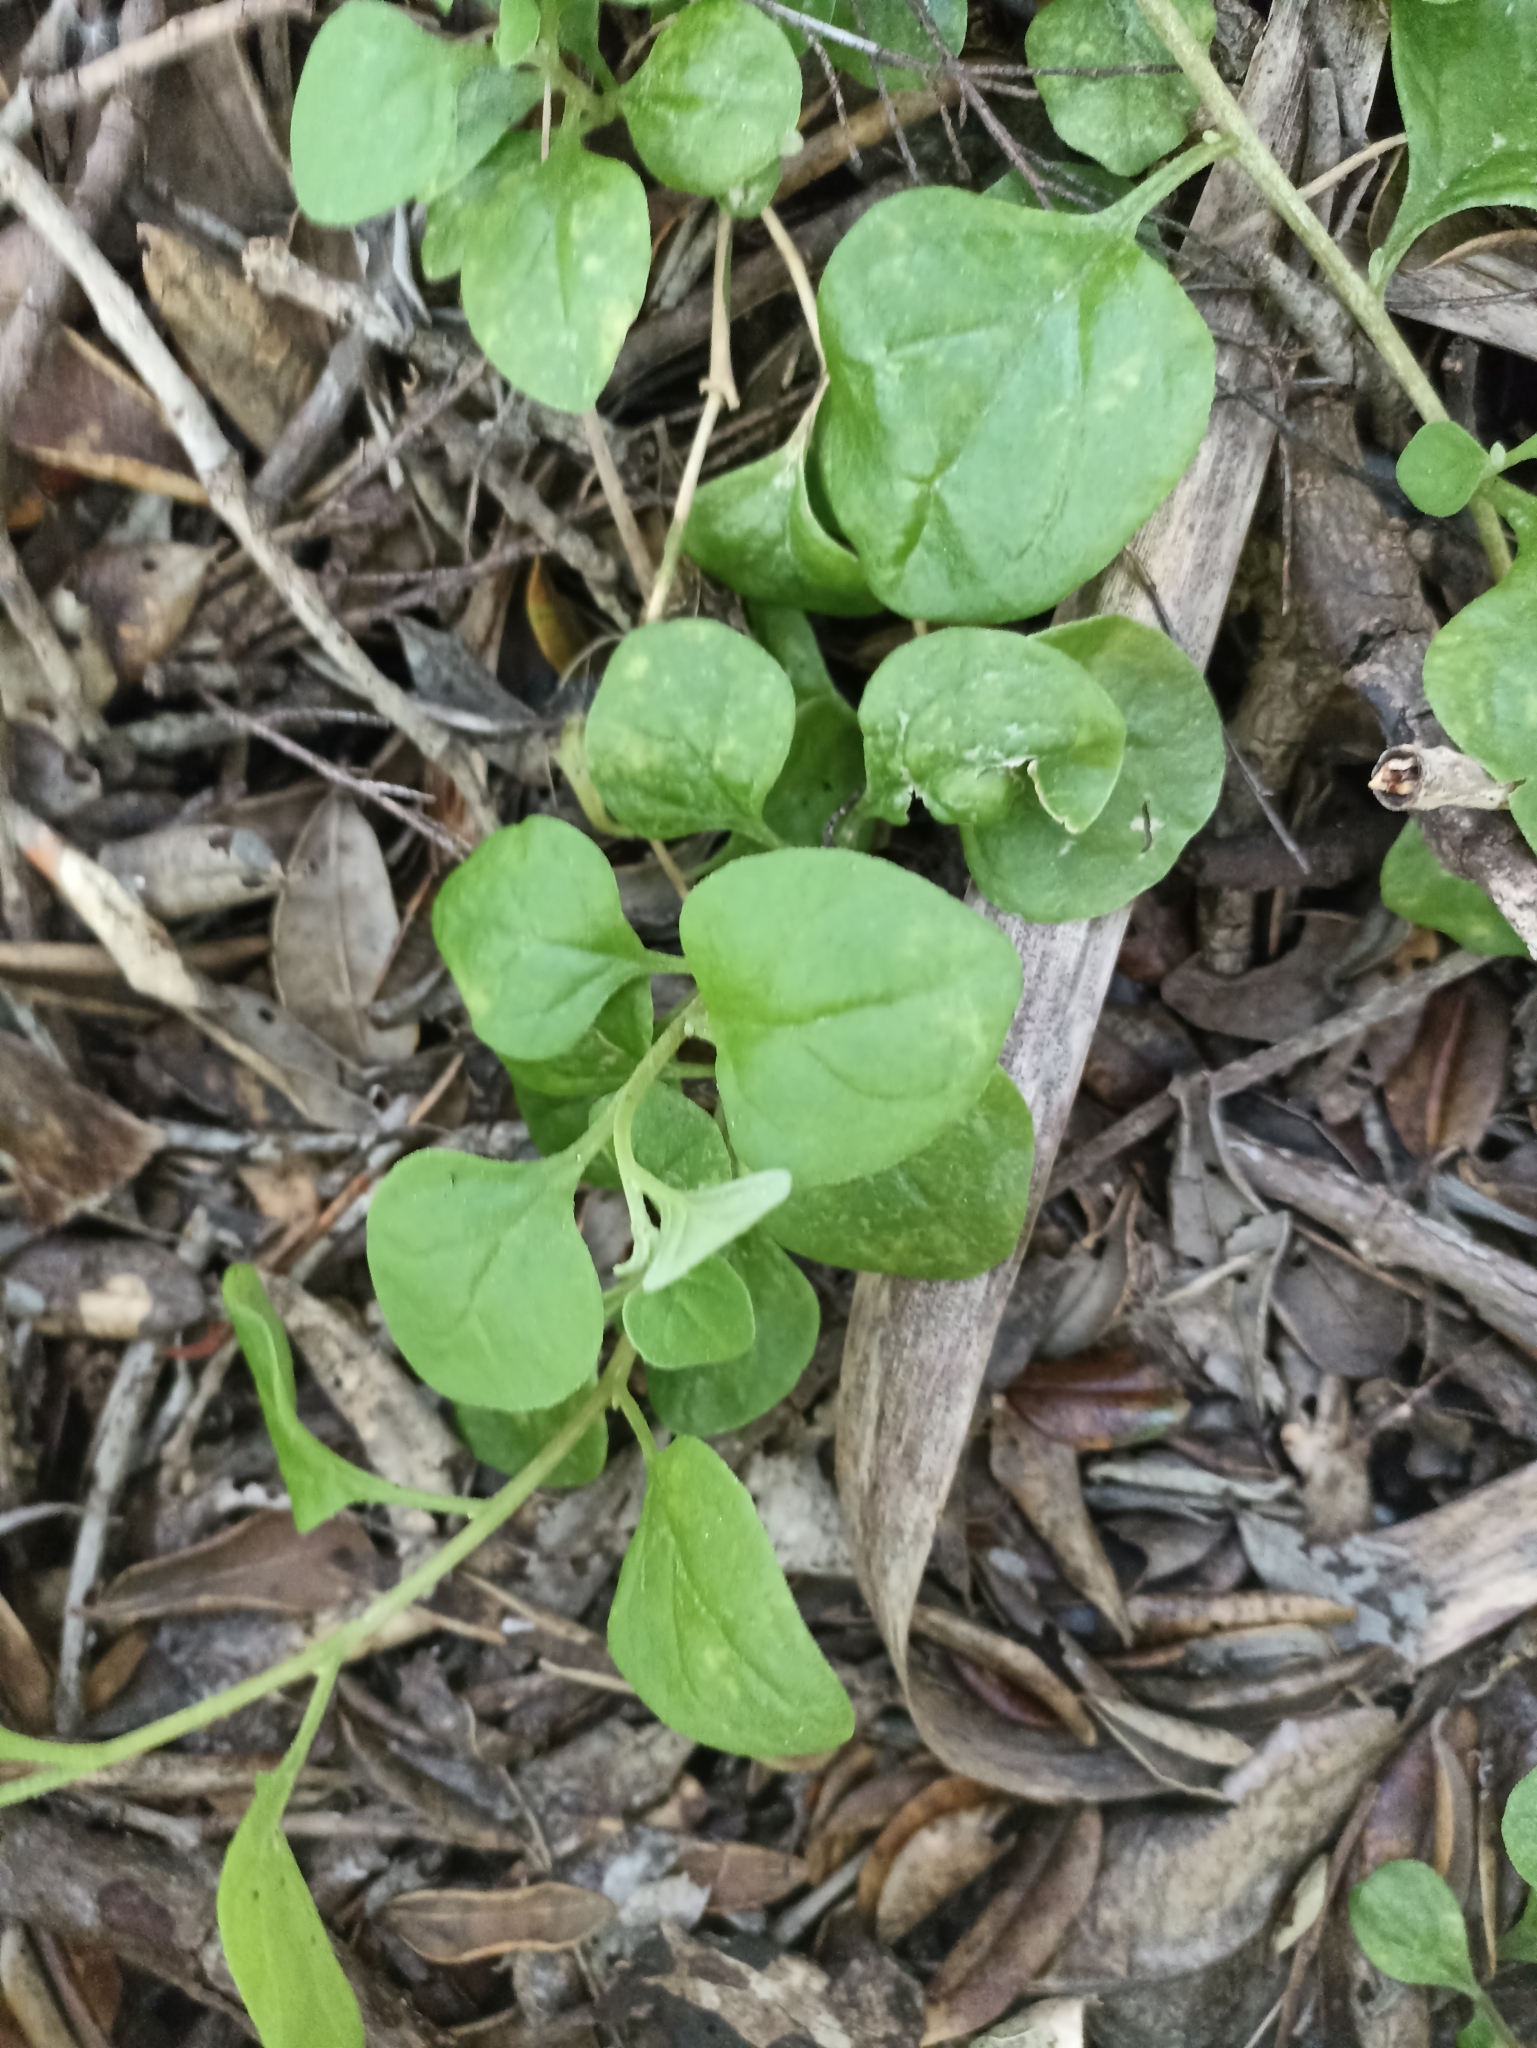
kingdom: Plantae
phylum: Tracheophyta
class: Magnoliopsida
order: Caryophyllales
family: Aizoaceae
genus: Tetragonia
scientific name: Tetragonia implexicoma
